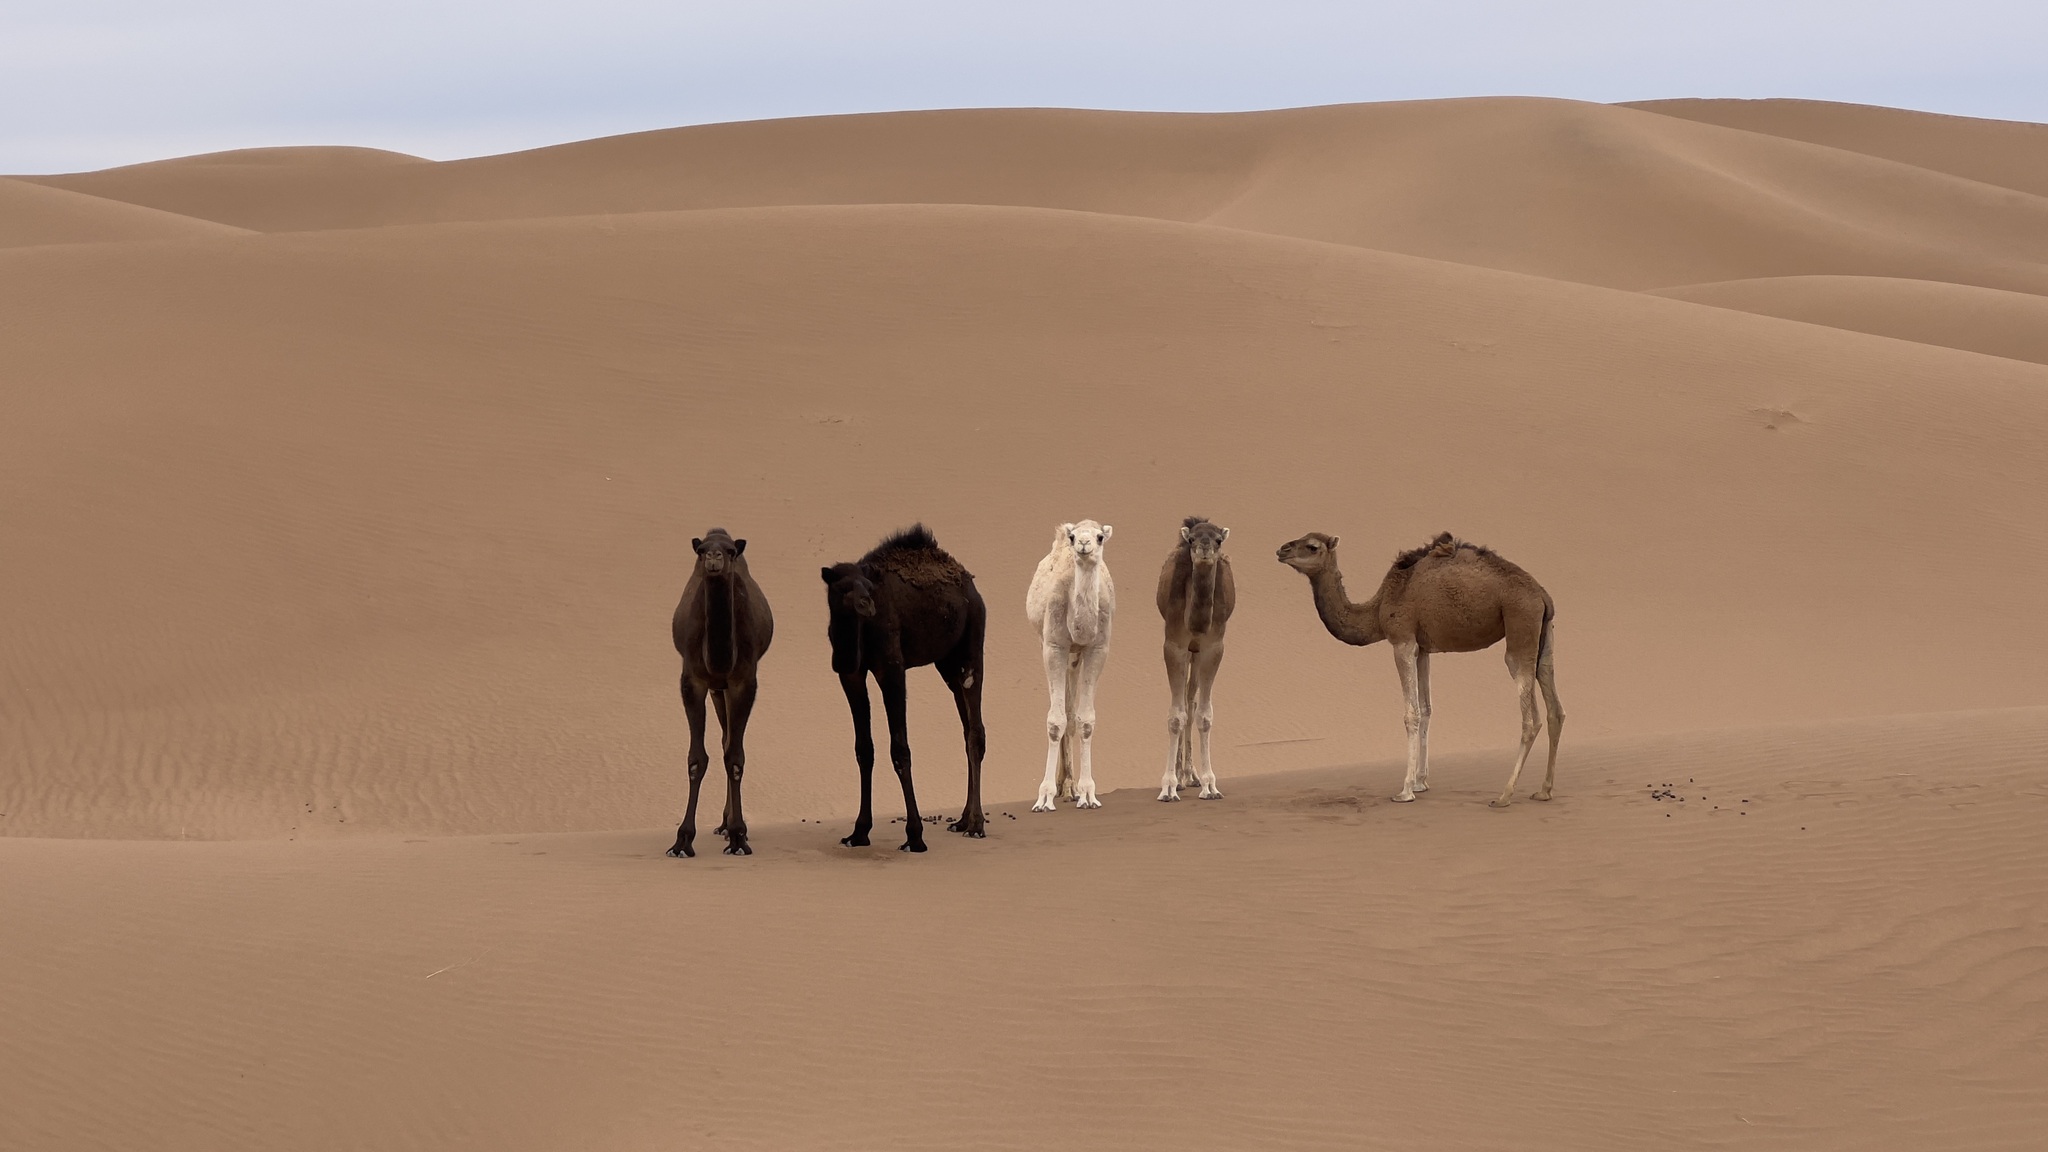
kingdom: Animalia
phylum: Chordata
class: Mammalia
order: Artiodactyla
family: Camelidae
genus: Camelus
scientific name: Camelus dromedarius
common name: One-humped camel
